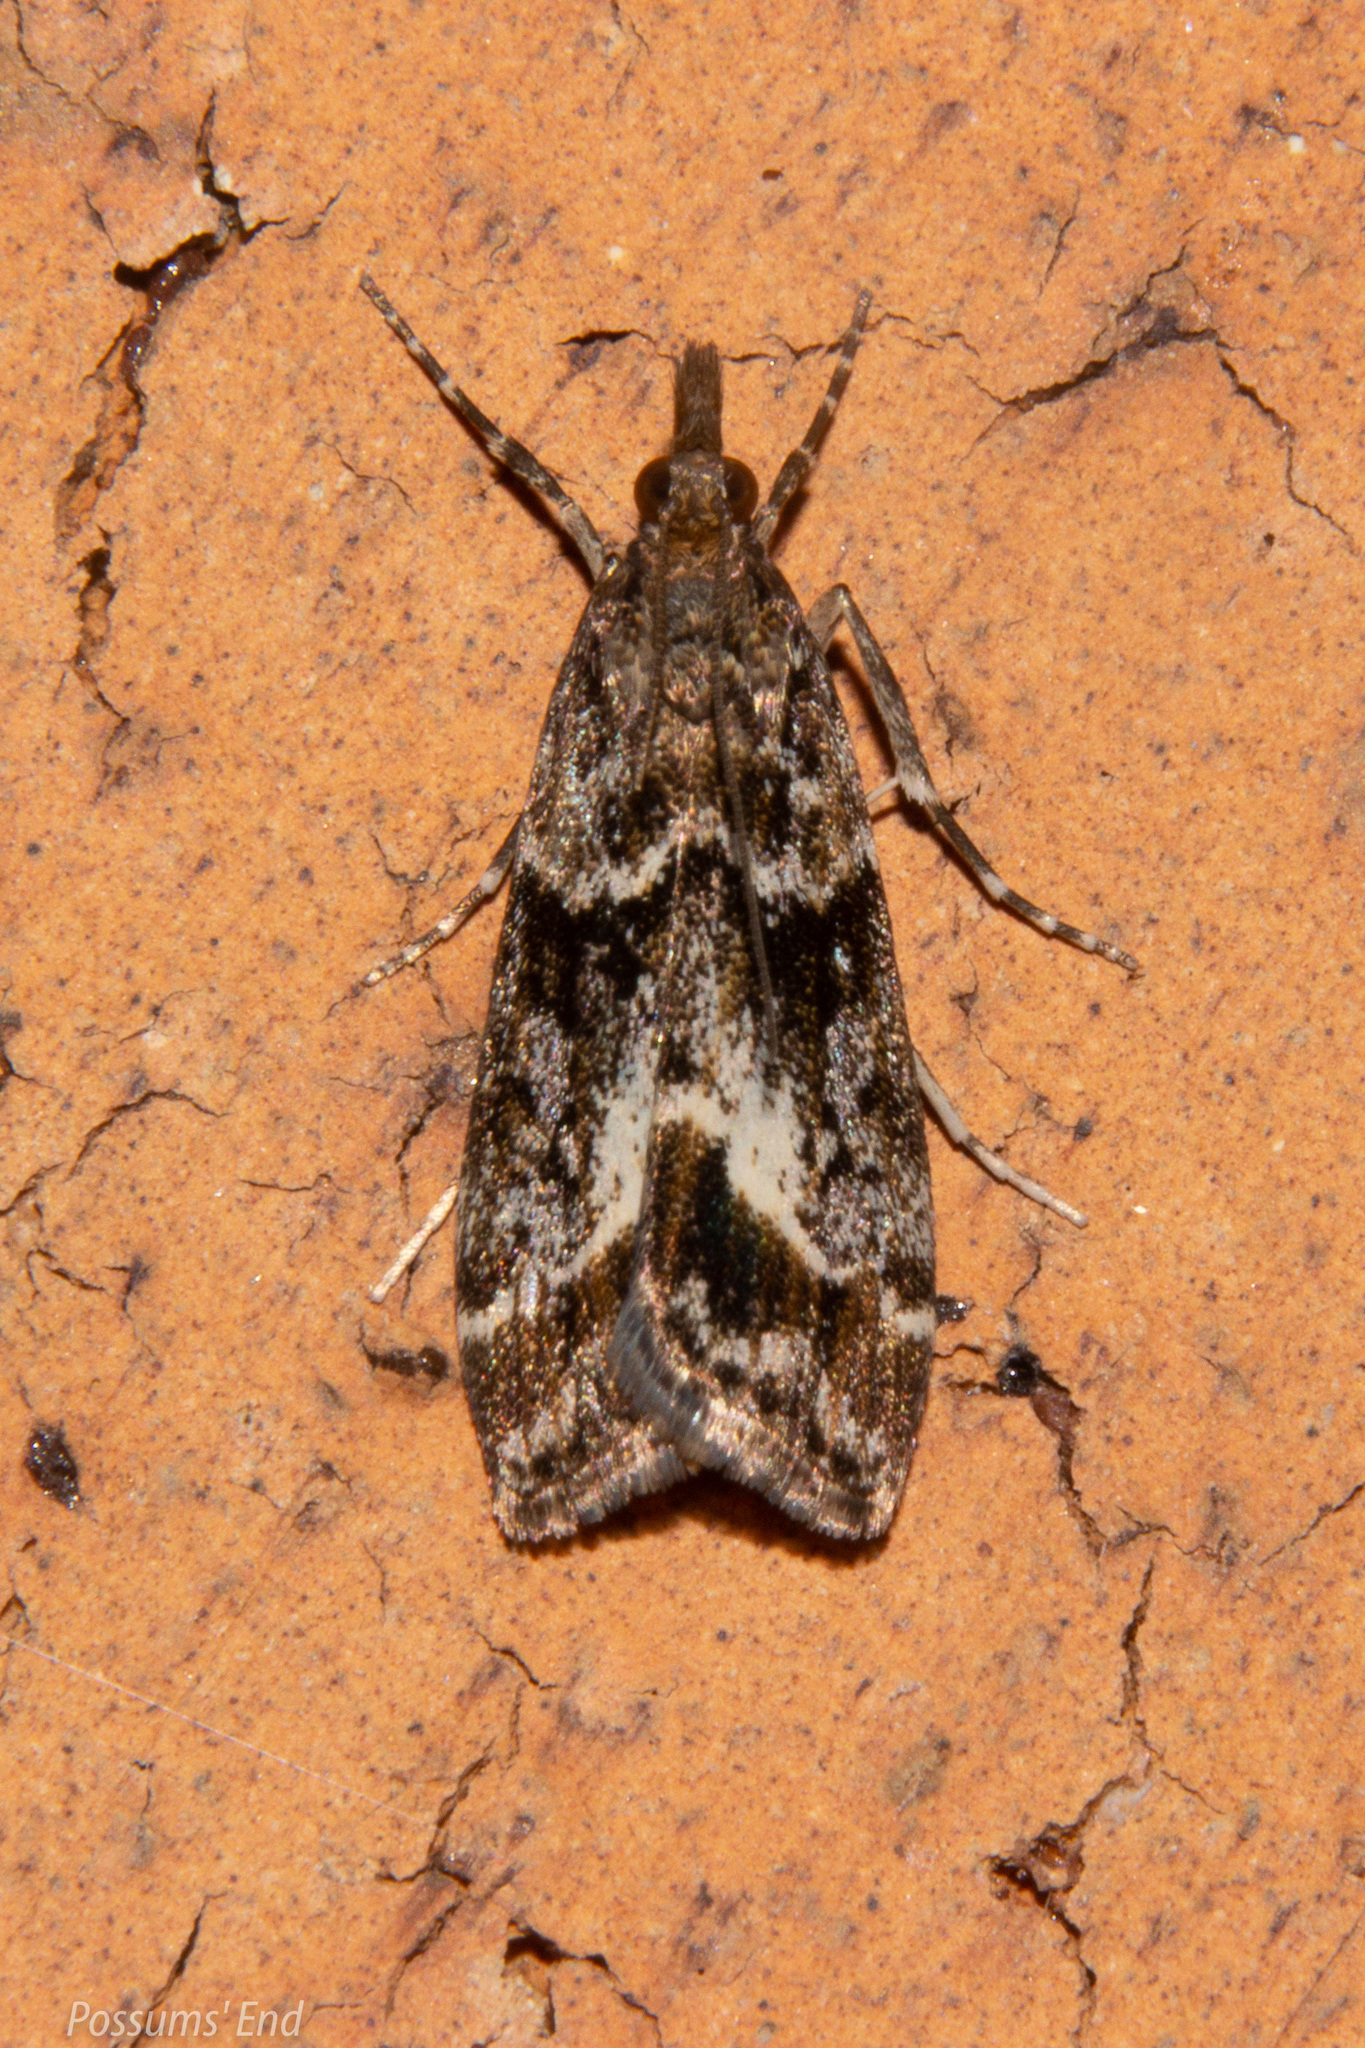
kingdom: Animalia
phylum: Arthropoda
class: Insecta
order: Lepidoptera
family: Crambidae
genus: Eudonia
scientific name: Eudonia legnota
